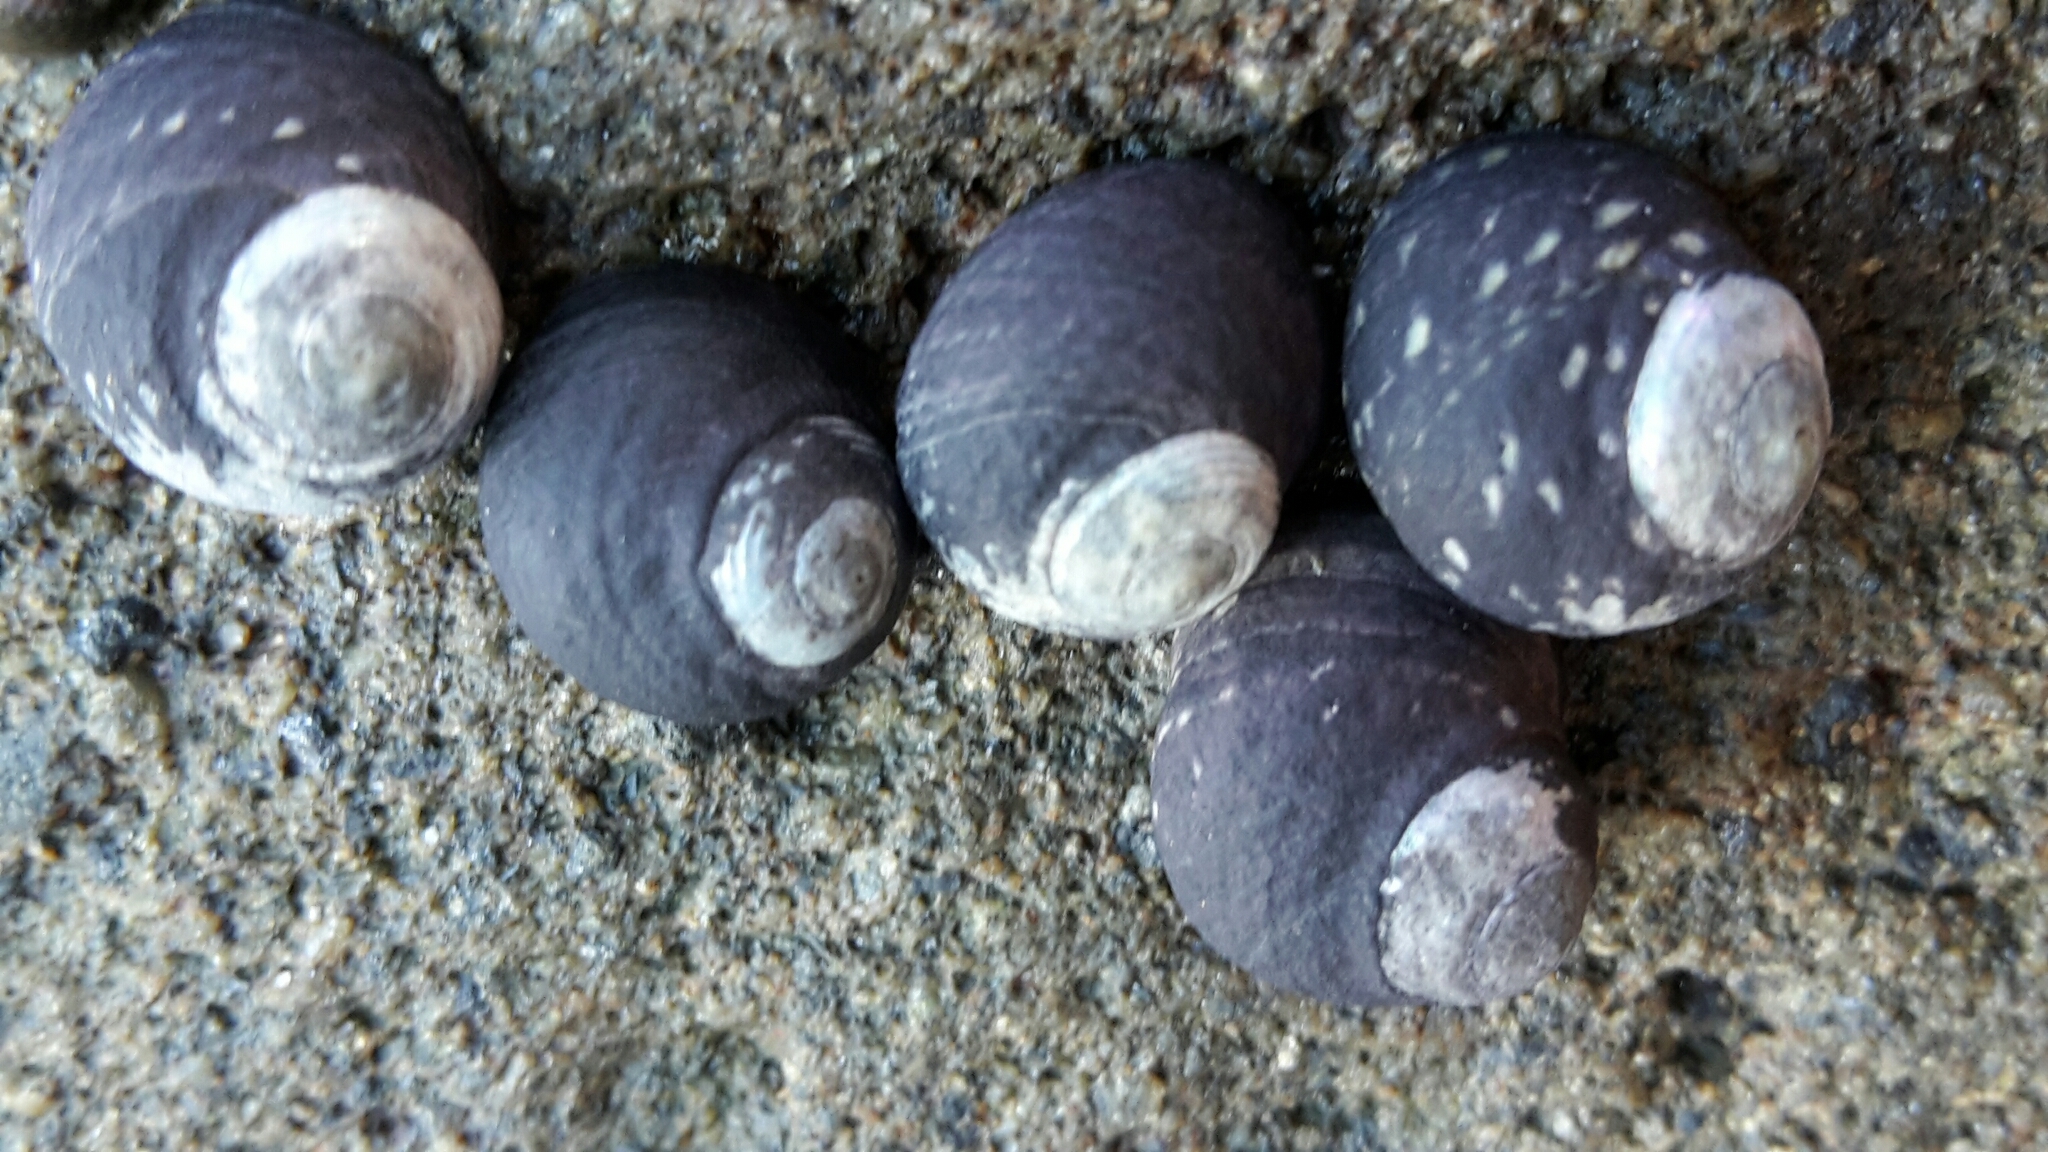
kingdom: Animalia
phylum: Mollusca
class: Gastropoda
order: Trochida
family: Trochidae
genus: Diloma
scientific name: Diloma zelandicum
